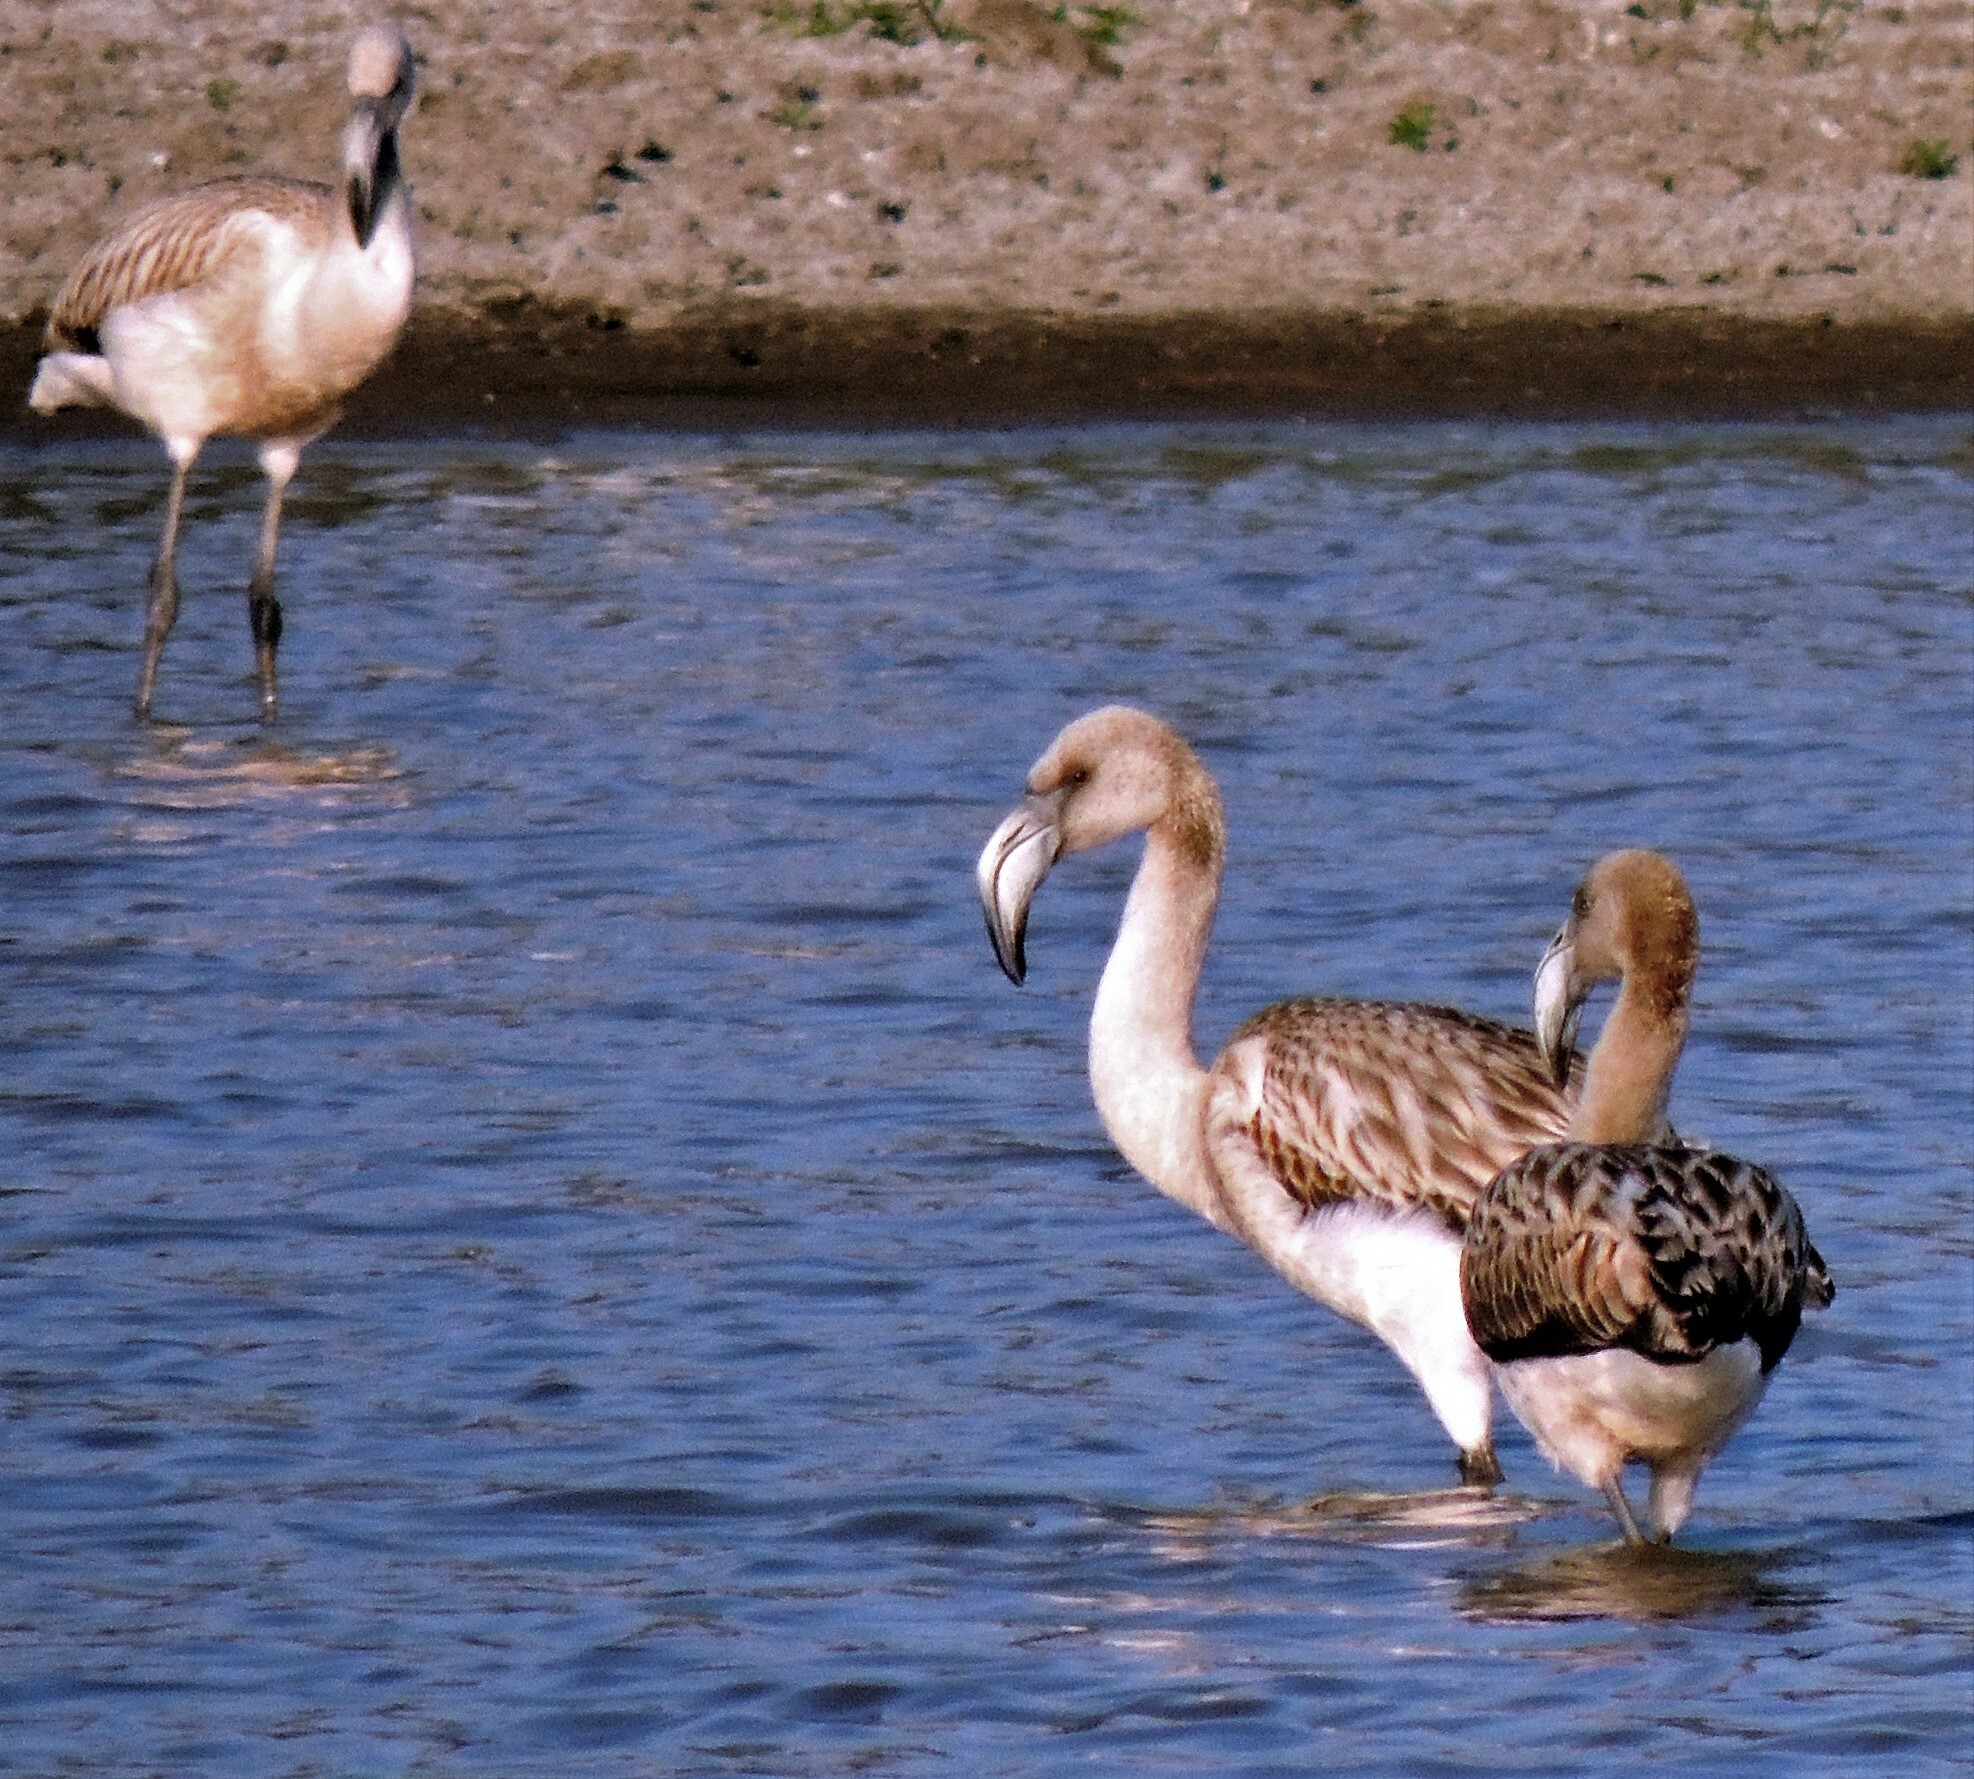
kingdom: Animalia
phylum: Chordata
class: Aves
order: Phoenicopteriformes
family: Phoenicopteridae
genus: Phoenicopterus
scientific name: Phoenicopterus chilensis
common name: Chilean flamingo
